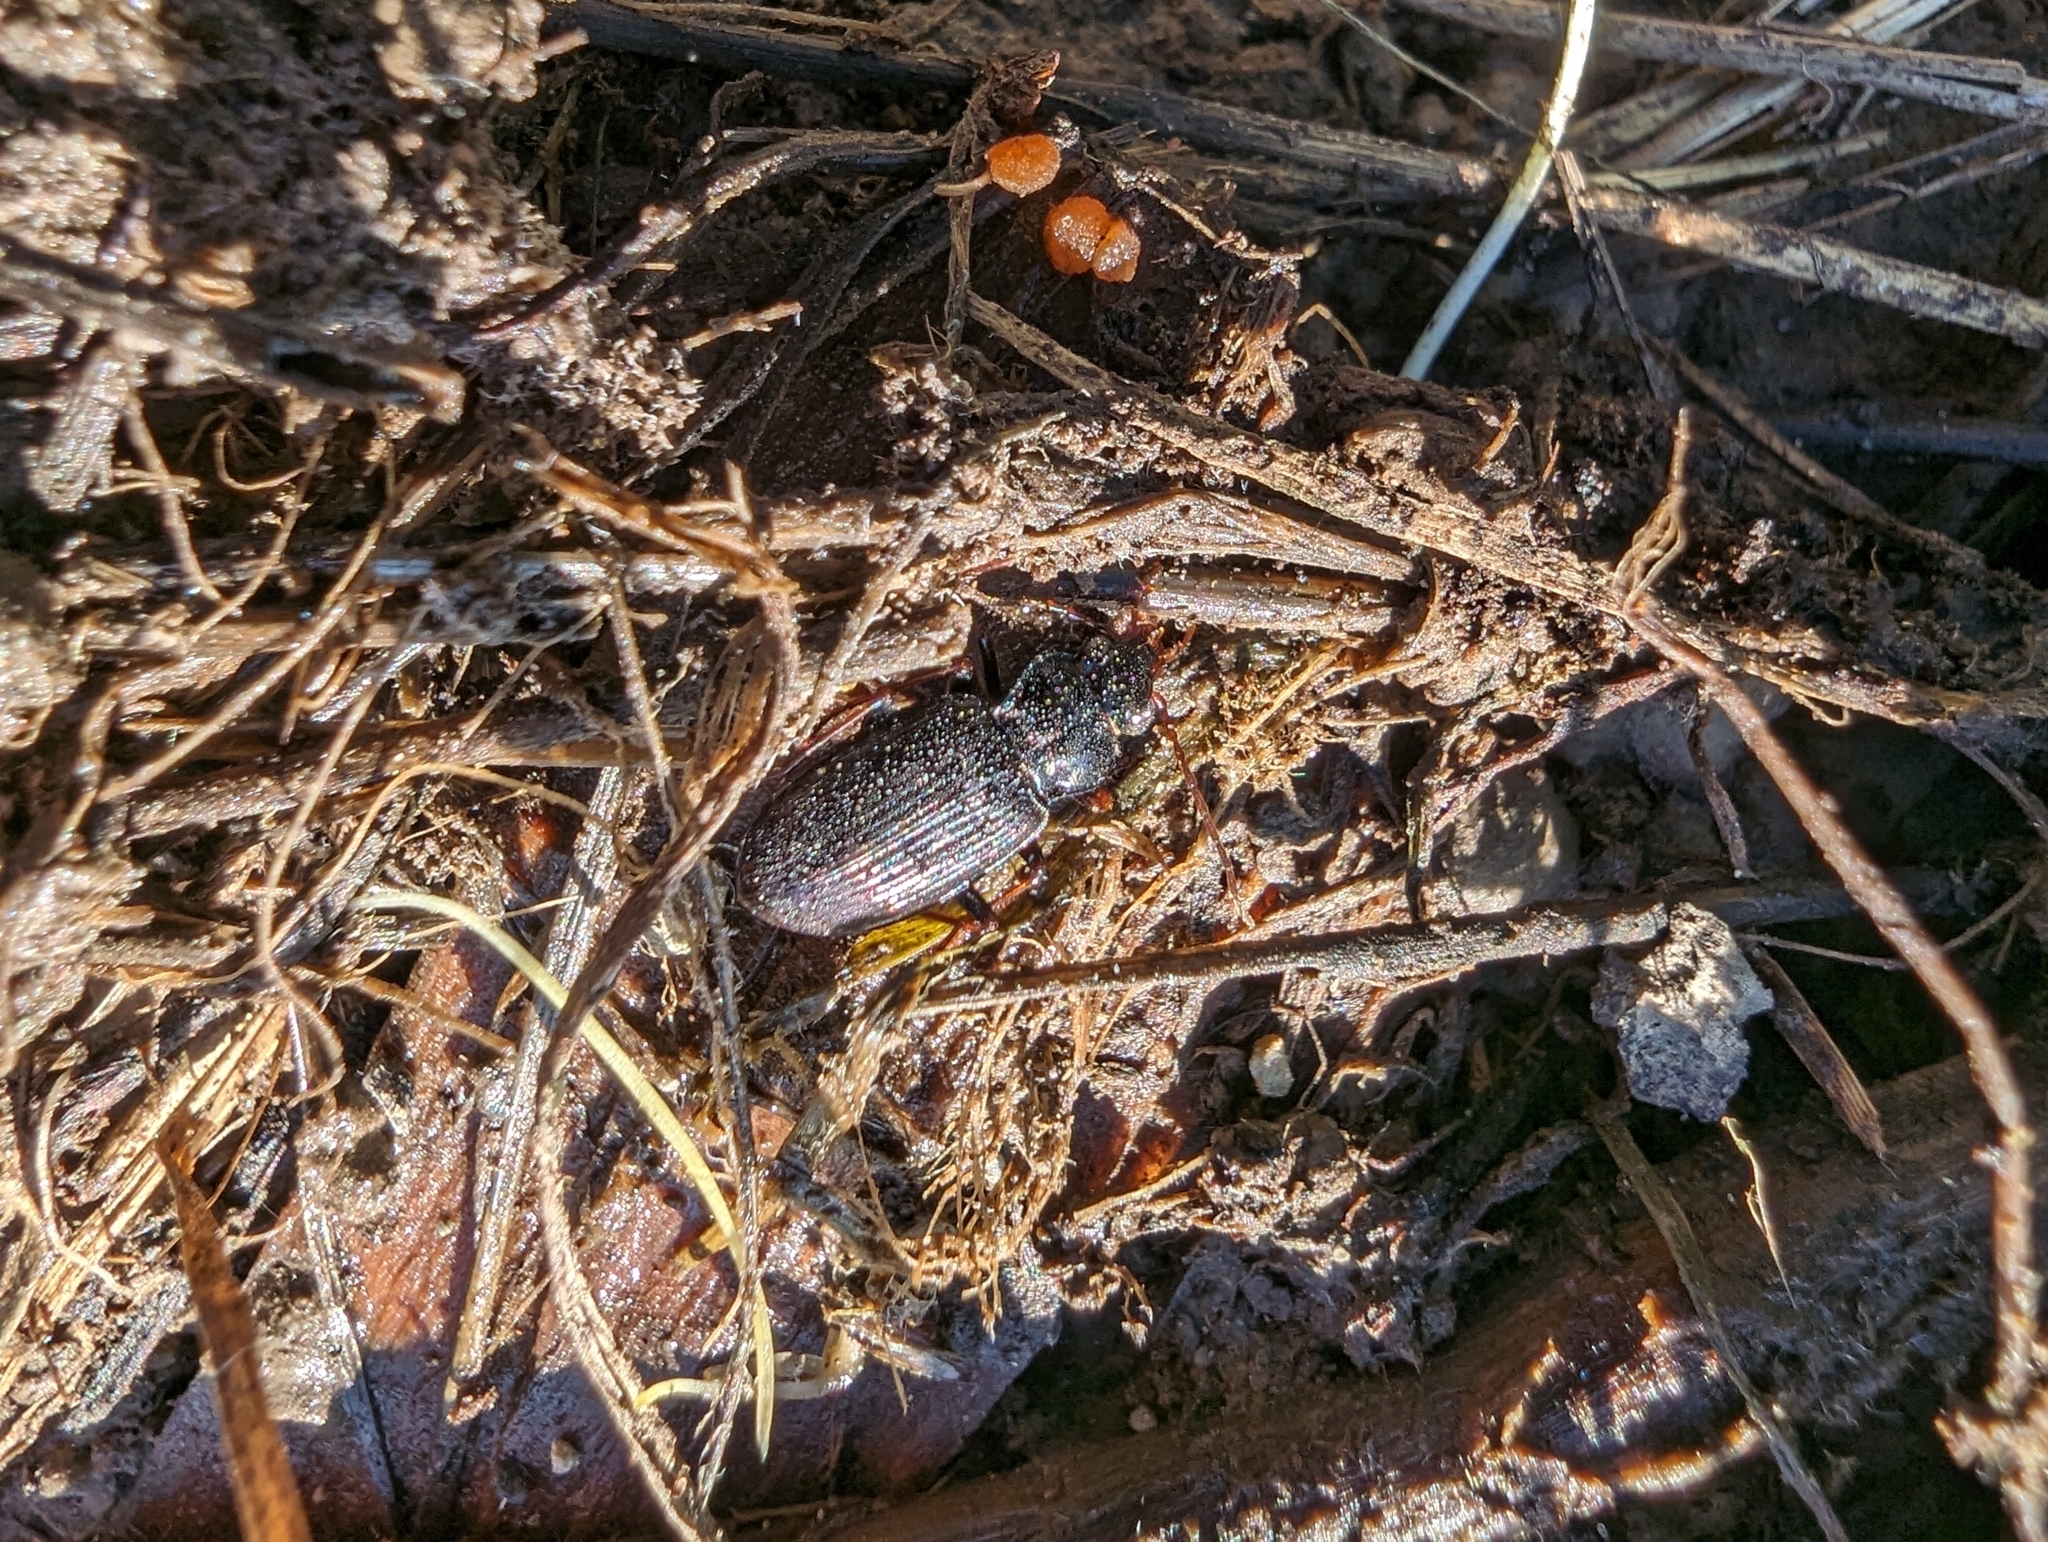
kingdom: Animalia
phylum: Arthropoda
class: Insecta
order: Coleoptera
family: Carabidae
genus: Nebria
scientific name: Nebria brevicollis
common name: Short-necked gazelle beetle
